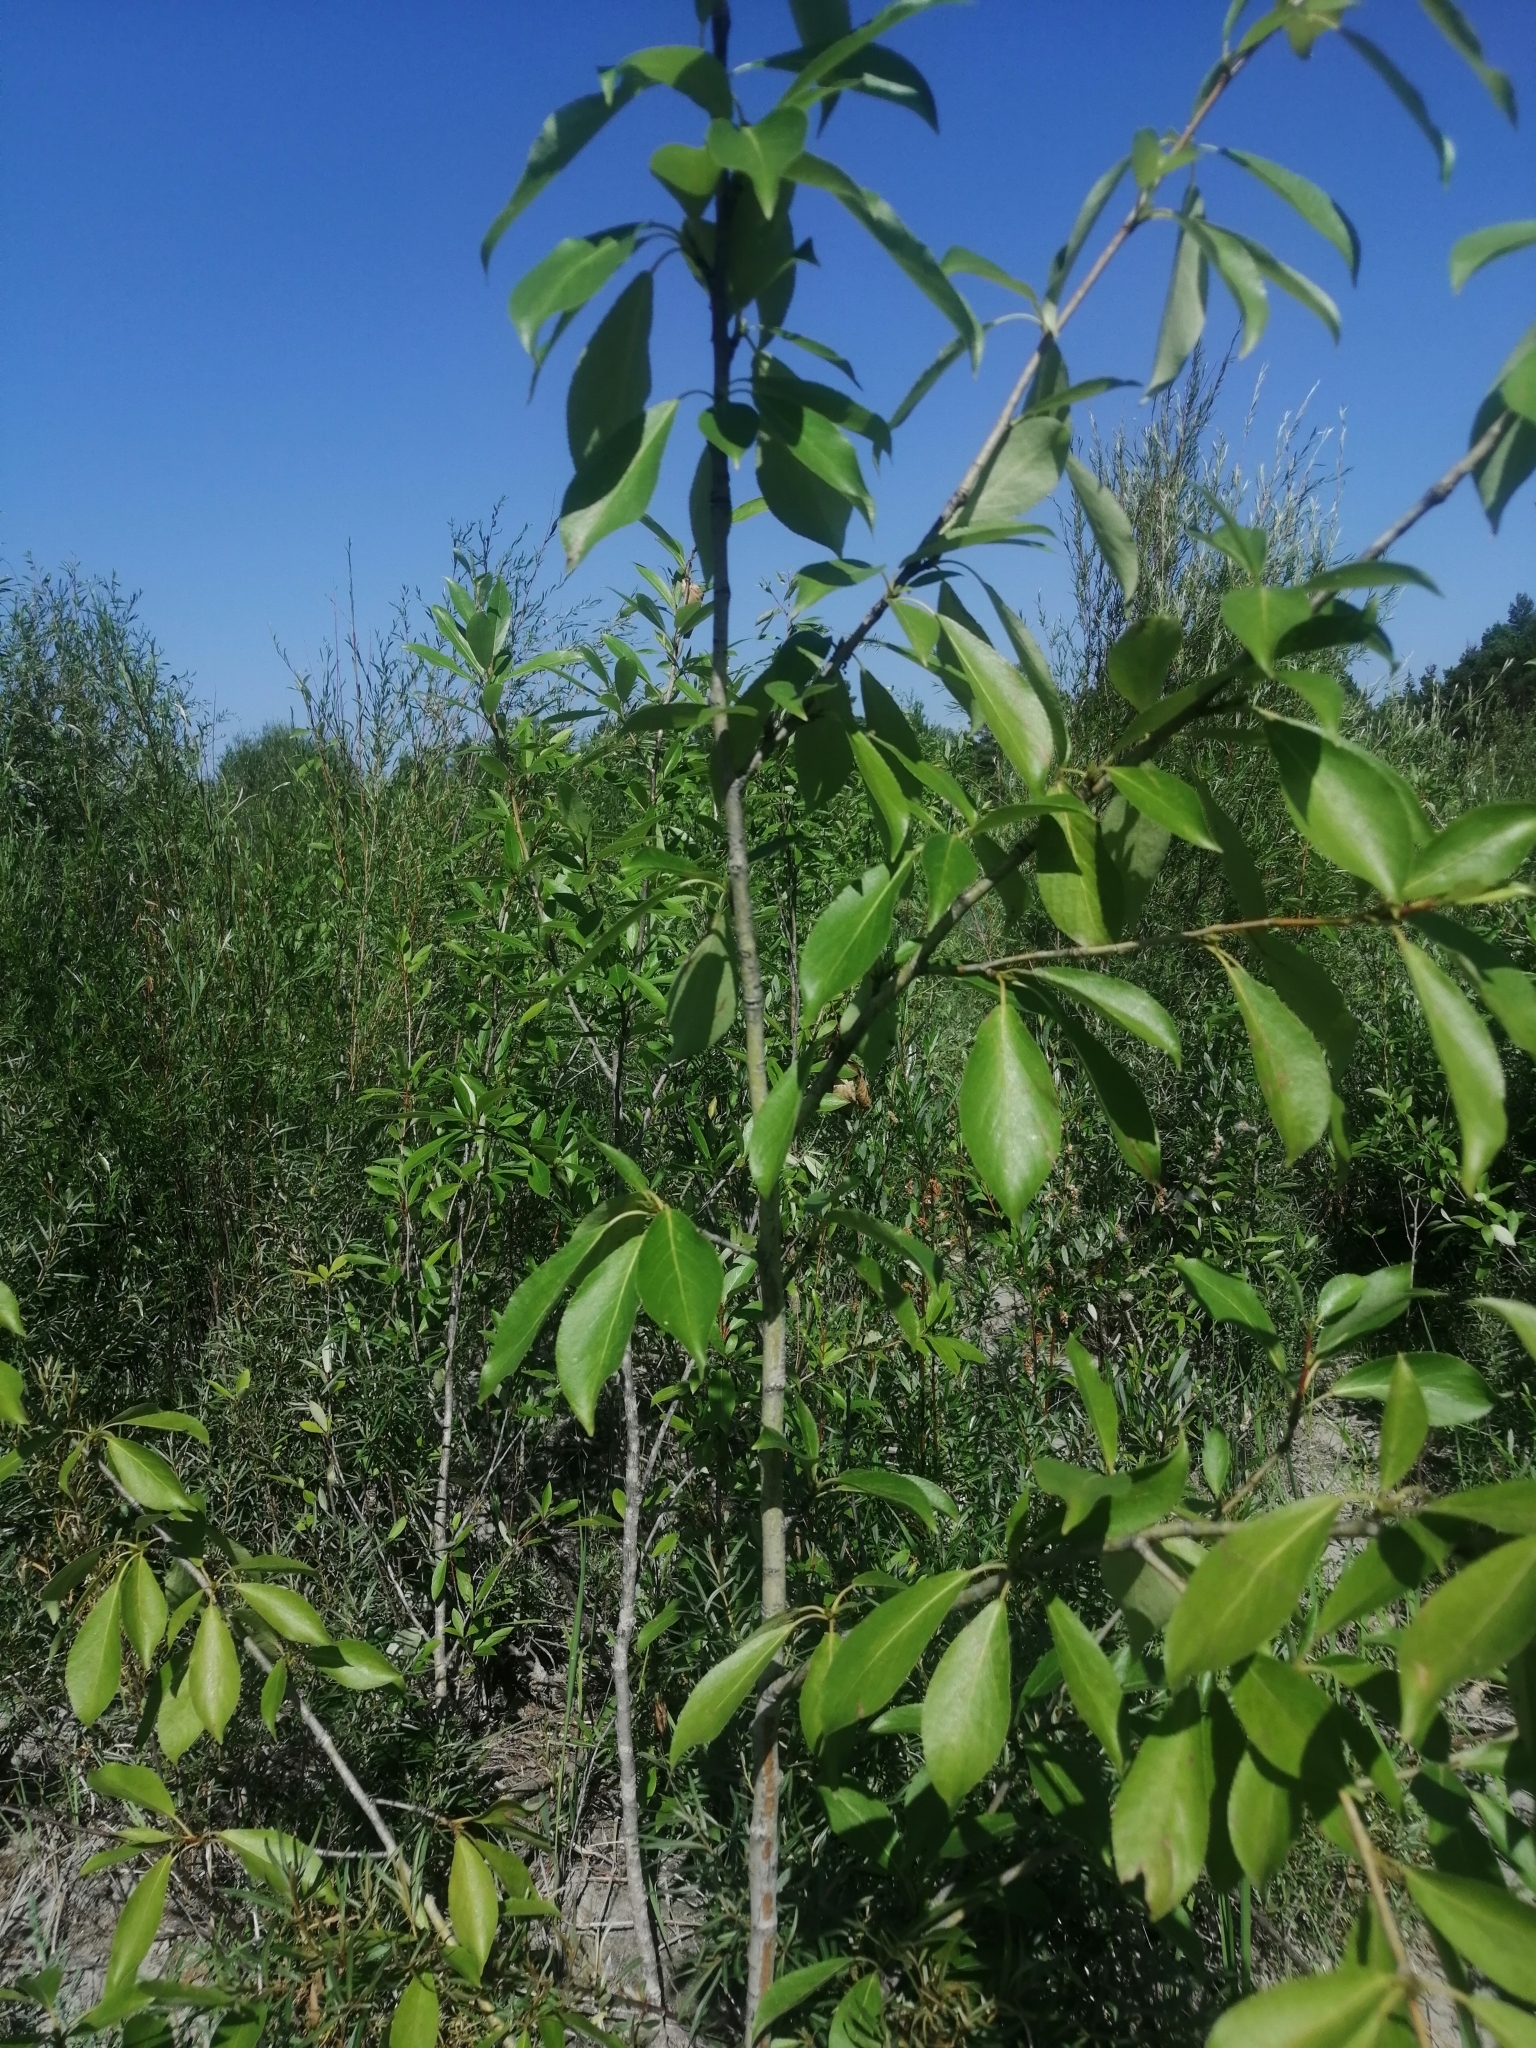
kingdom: Plantae
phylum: Tracheophyta
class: Magnoliopsida
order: Malpighiales
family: Salicaceae
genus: Populus
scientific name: Populus suaveolens
